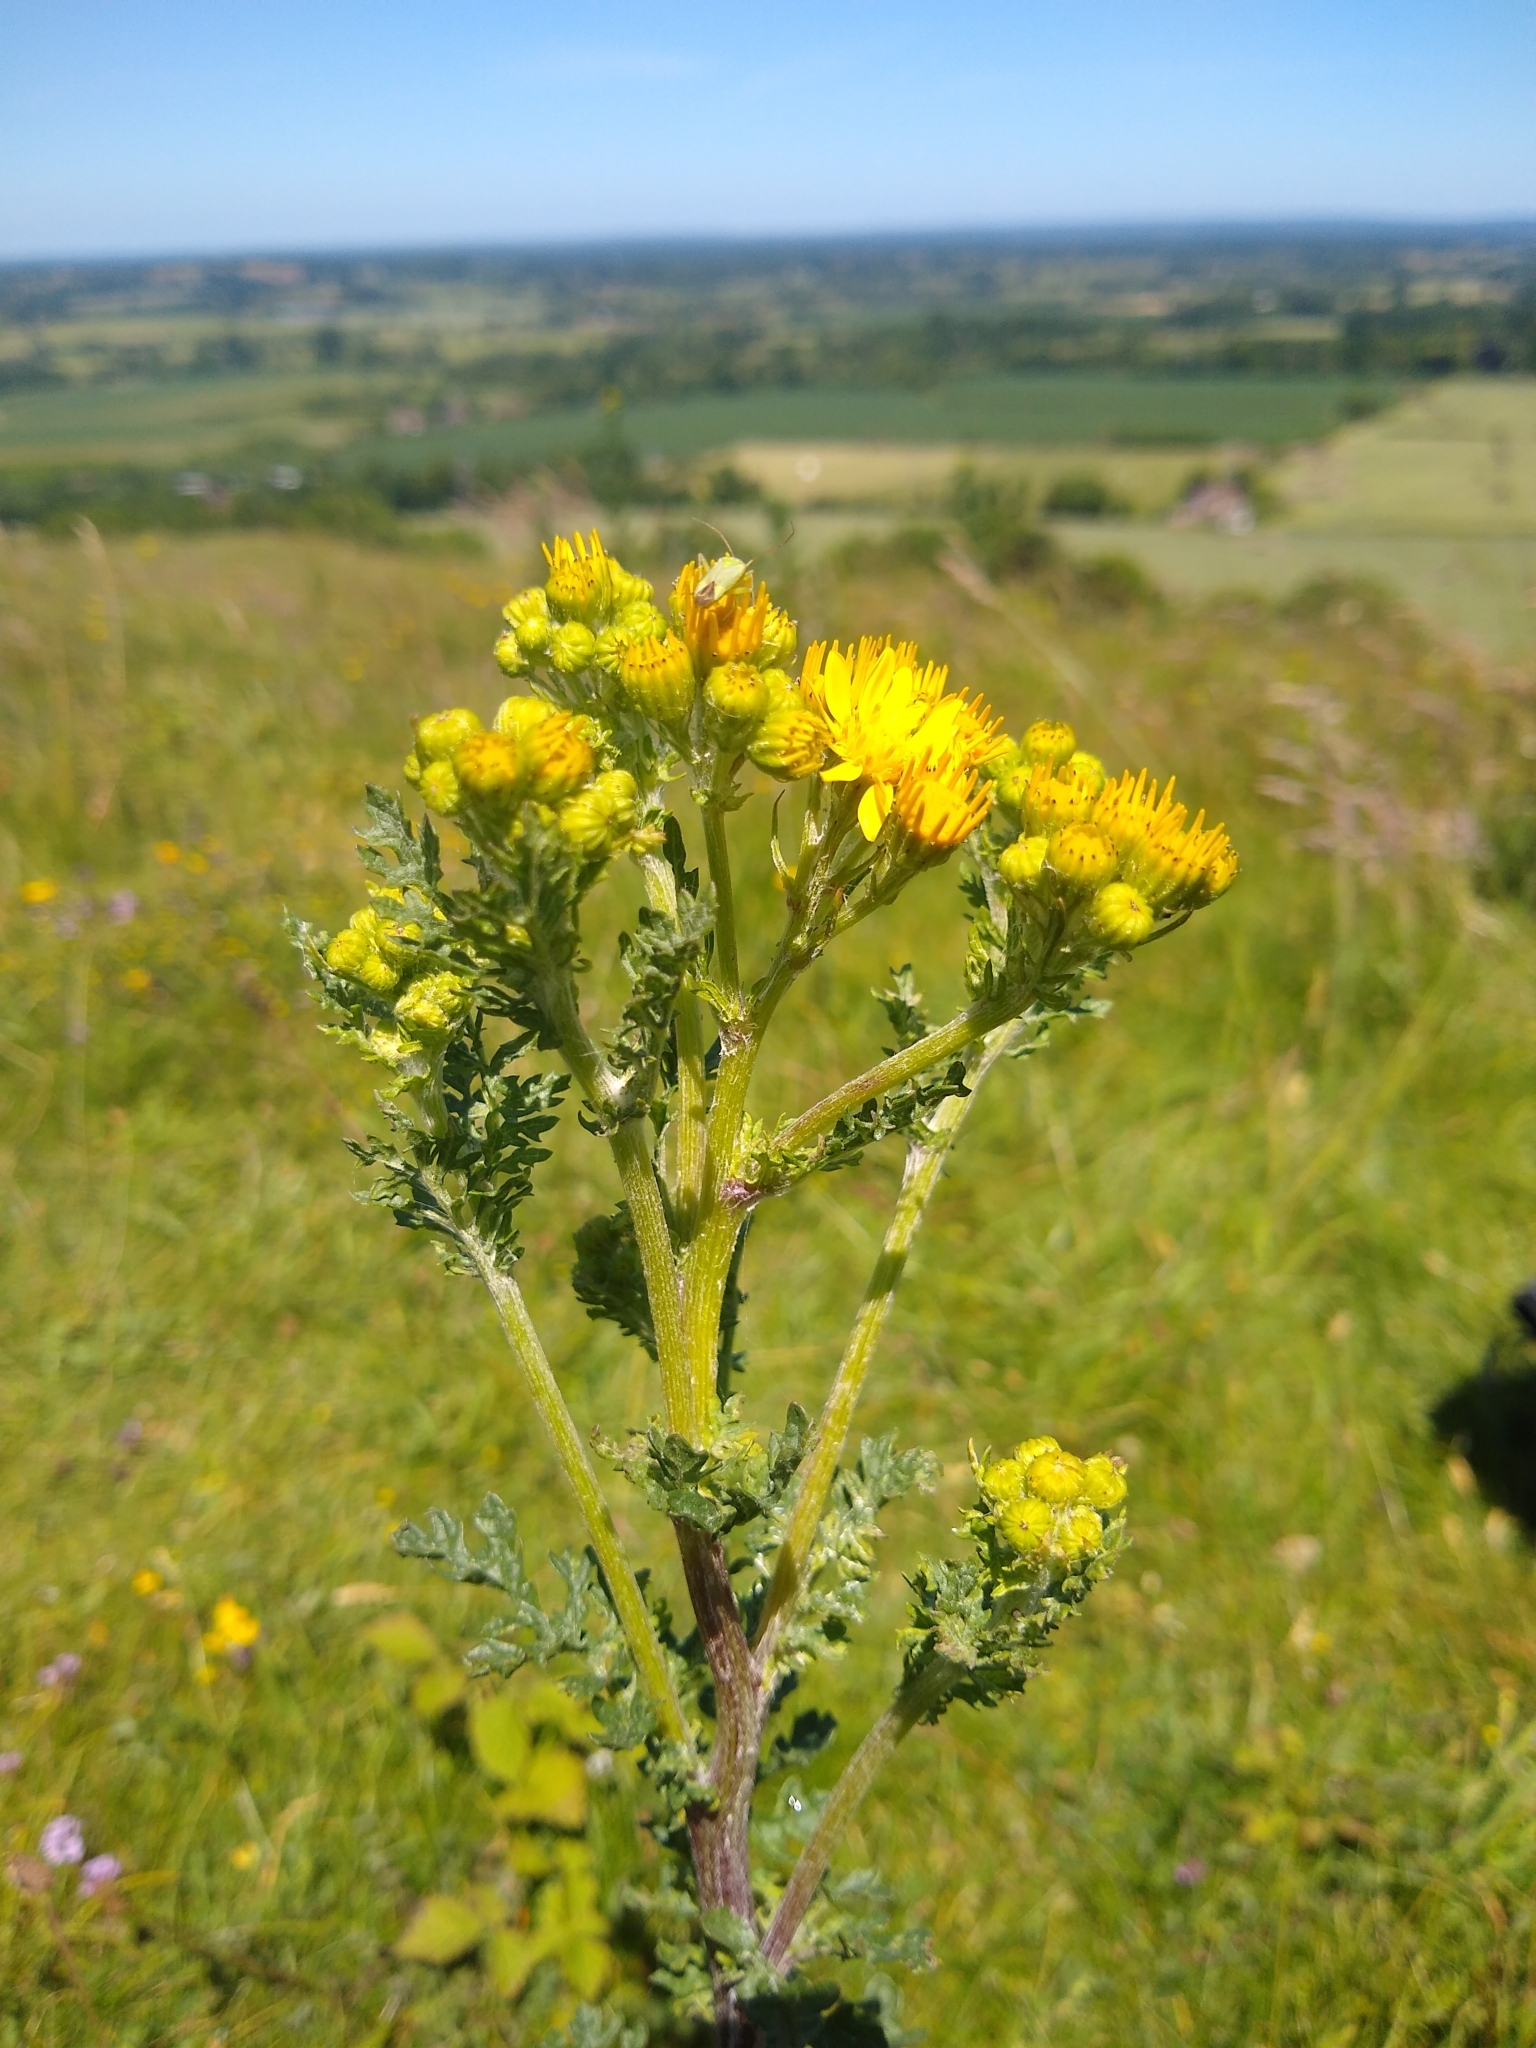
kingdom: Plantae
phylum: Tracheophyta
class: Magnoliopsida
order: Asterales
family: Asteraceae
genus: Jacobaea
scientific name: Jacobaea vulgaris
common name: Stinking willie
